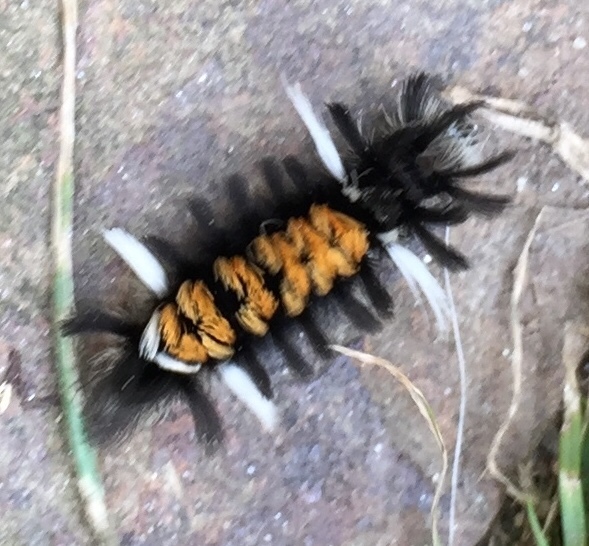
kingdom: Animalia
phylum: Arthropoda
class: Insecta
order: Lepidoptera
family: Erebidae
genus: Euchaetes
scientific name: Euchaetes egle
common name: Milkweed tussock moth
